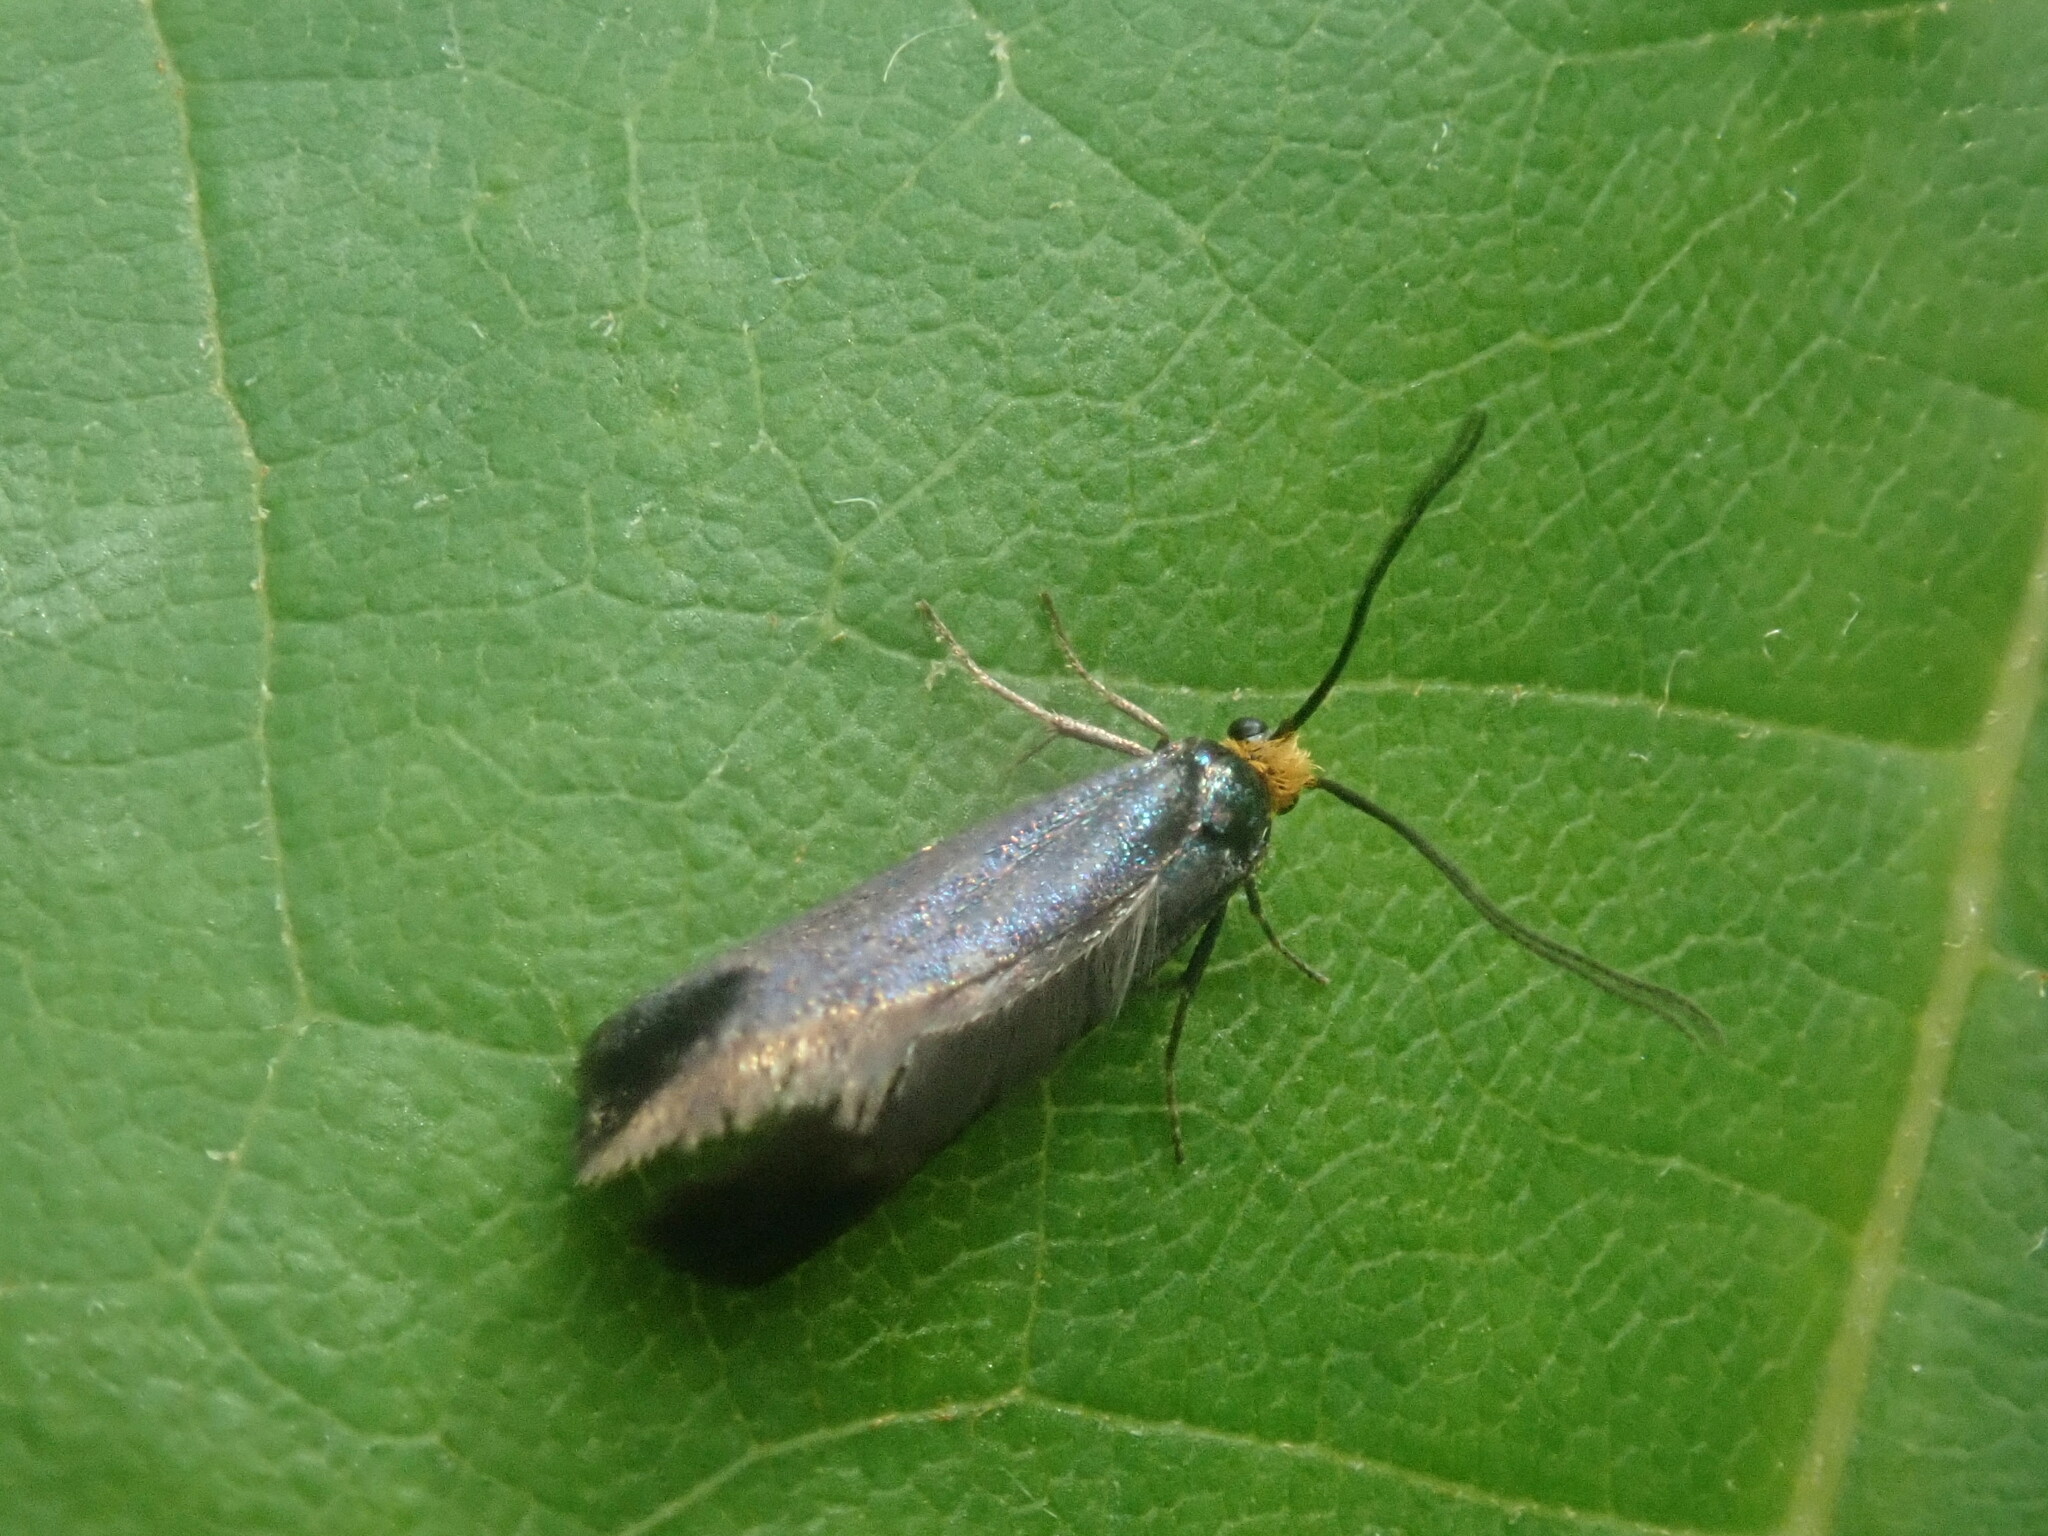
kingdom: Animalia
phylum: Arthropoda
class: Insecta
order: Lepidoptera
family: Incurvariidae
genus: Paraclemensia
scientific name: Paraclemensia acerifoliella
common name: Maple leafcutter
